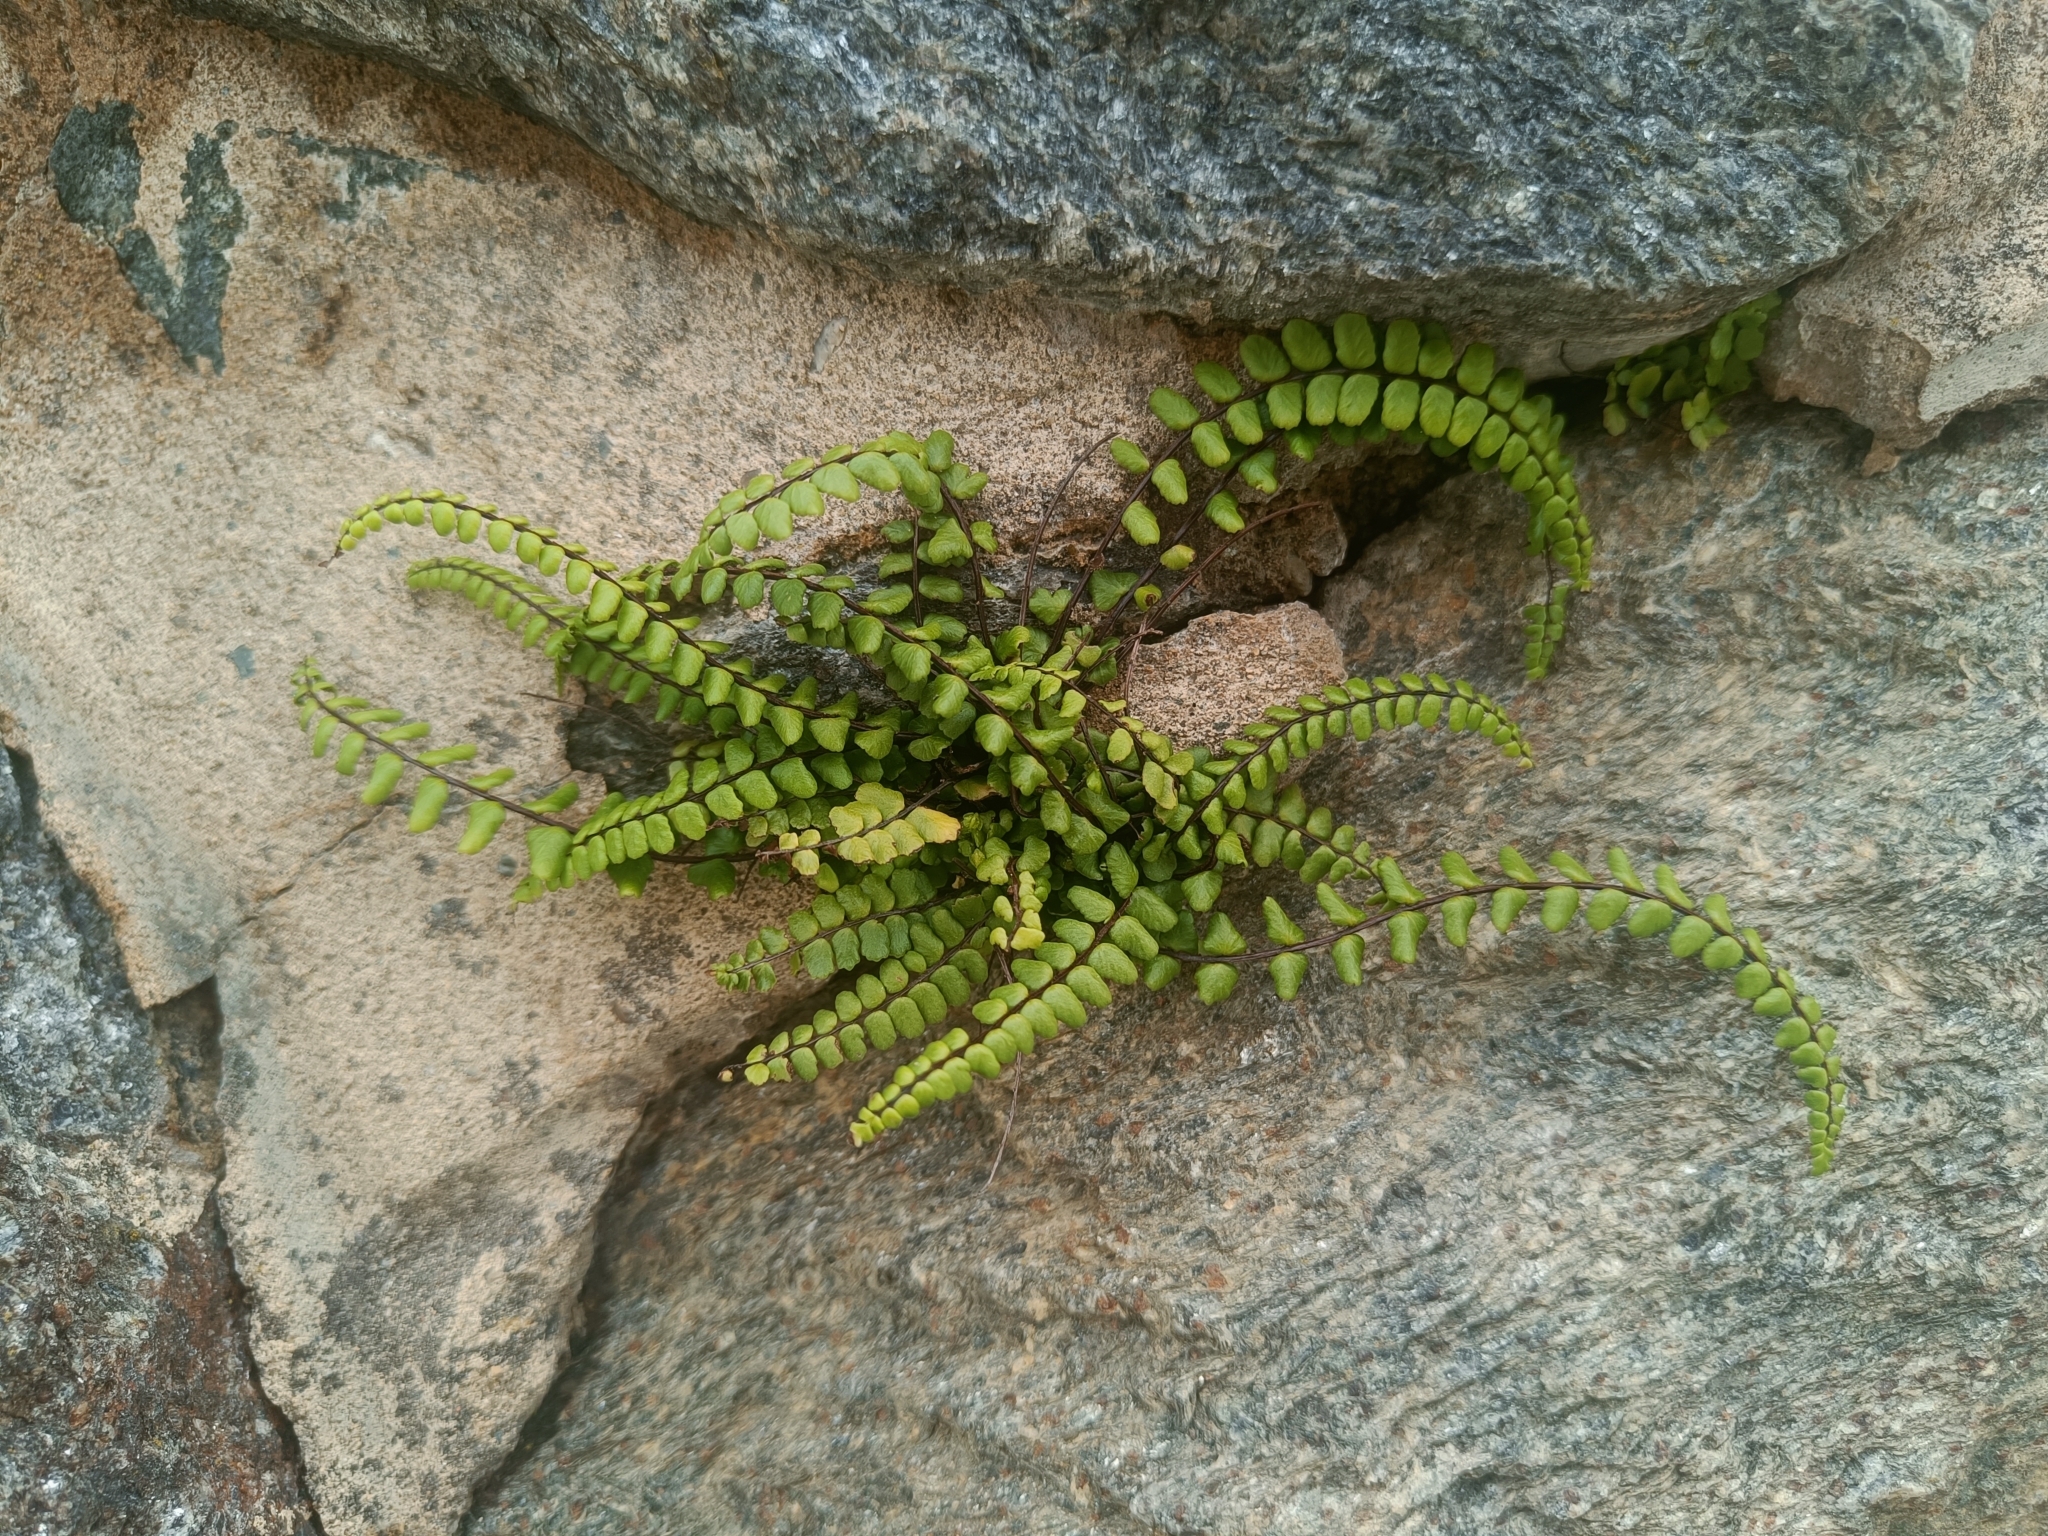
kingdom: Plantae
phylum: Tracheophyta
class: Polypodiopsida
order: Polypodiales
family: Aspleniaceae
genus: Asplenium
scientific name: Asplenium trichomanes
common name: Maidenhair spleenwort
